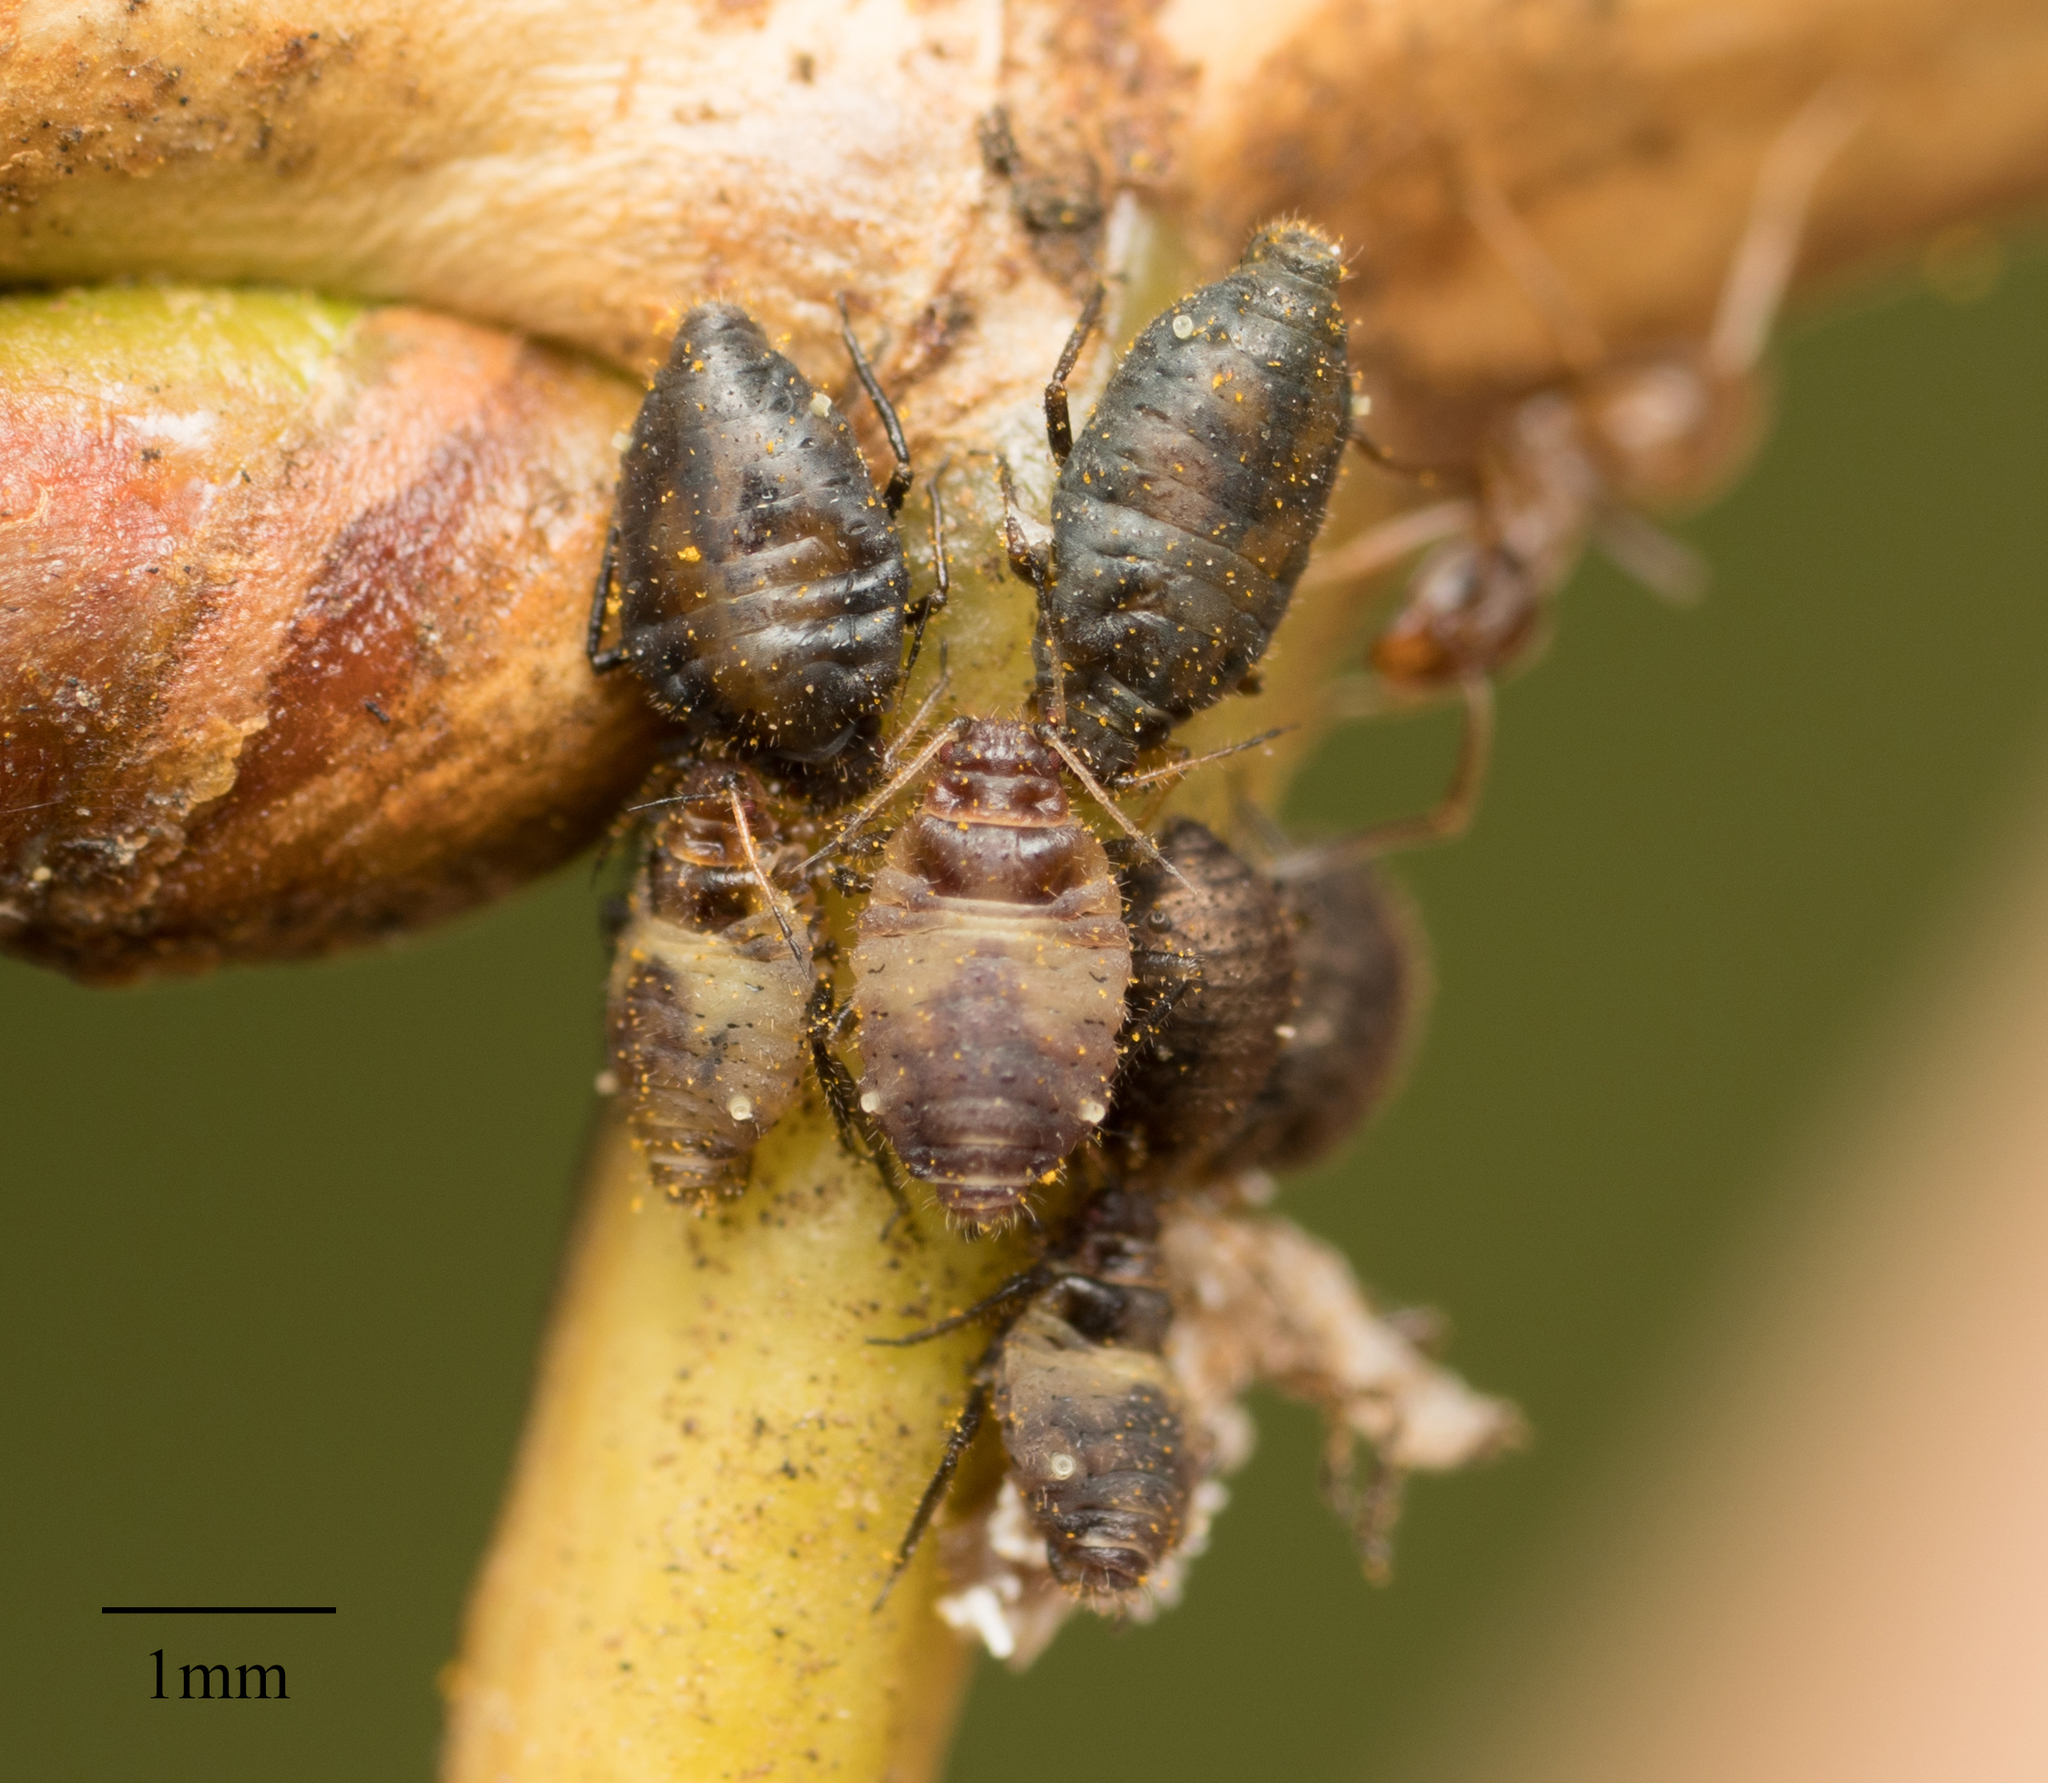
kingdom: Animalia
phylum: Arthropoda
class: Insecta
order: Hemiptera
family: Aphididae
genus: Chaitophorus
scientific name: Chaitophorus populicola
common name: Smokywinged poplar aphid
